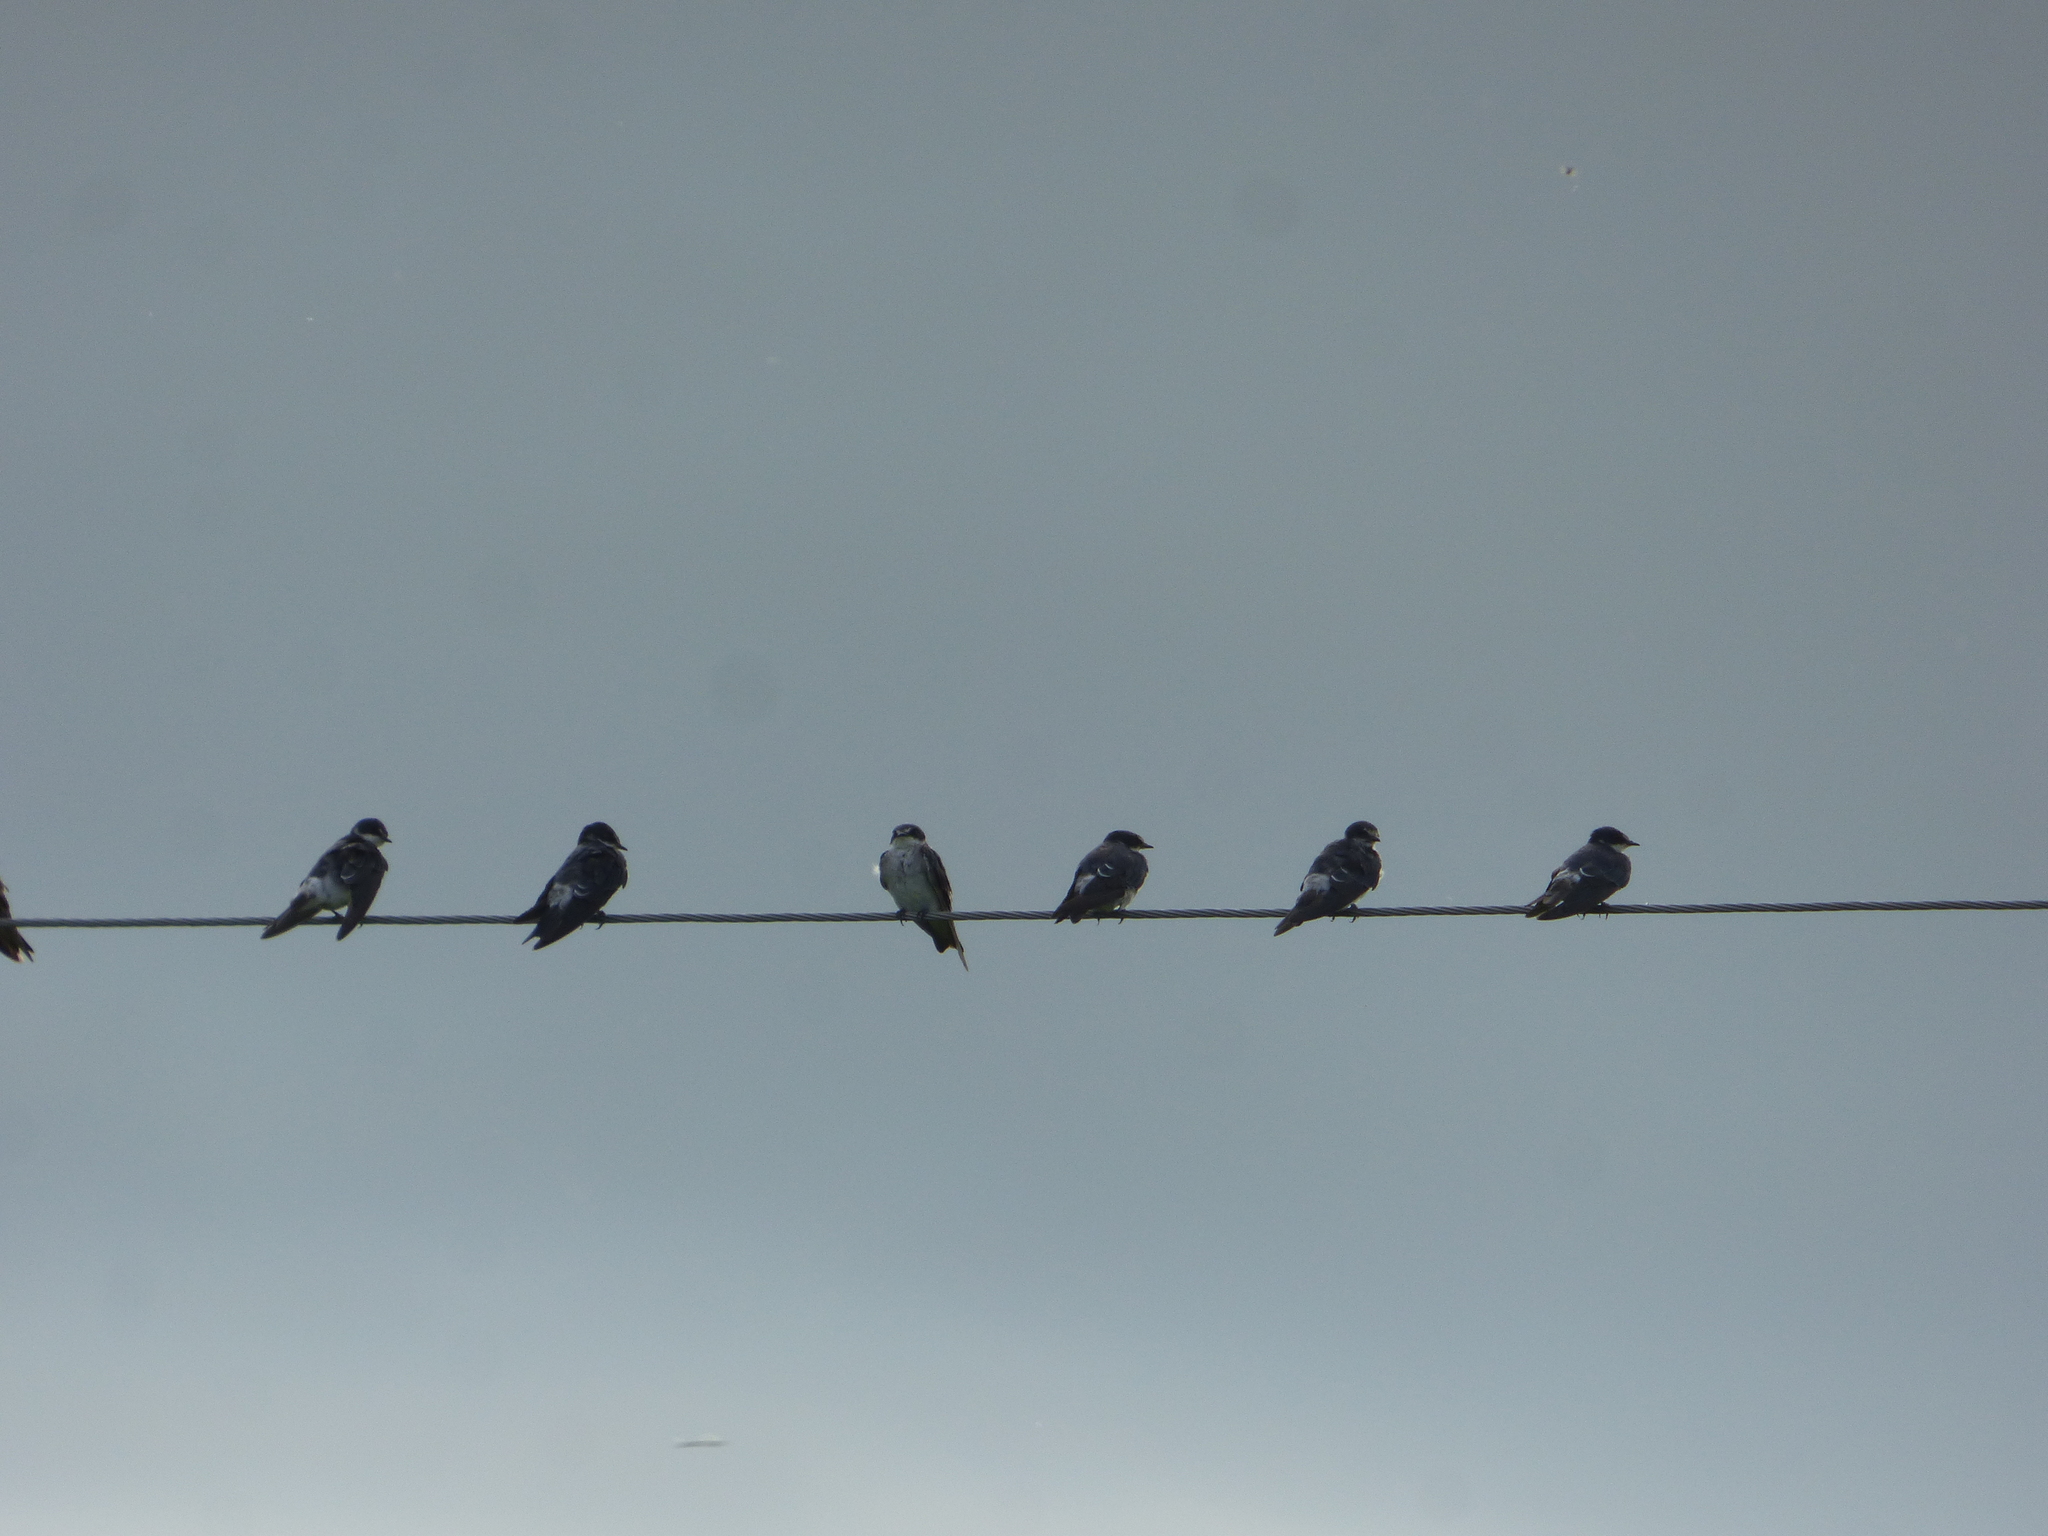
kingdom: Animalia
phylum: Chordata
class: Aves
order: Passeriformes
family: Hirundinidae
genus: Tachycineta
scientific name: Tachycineta leucorrhoa
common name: White-rumped swallow
